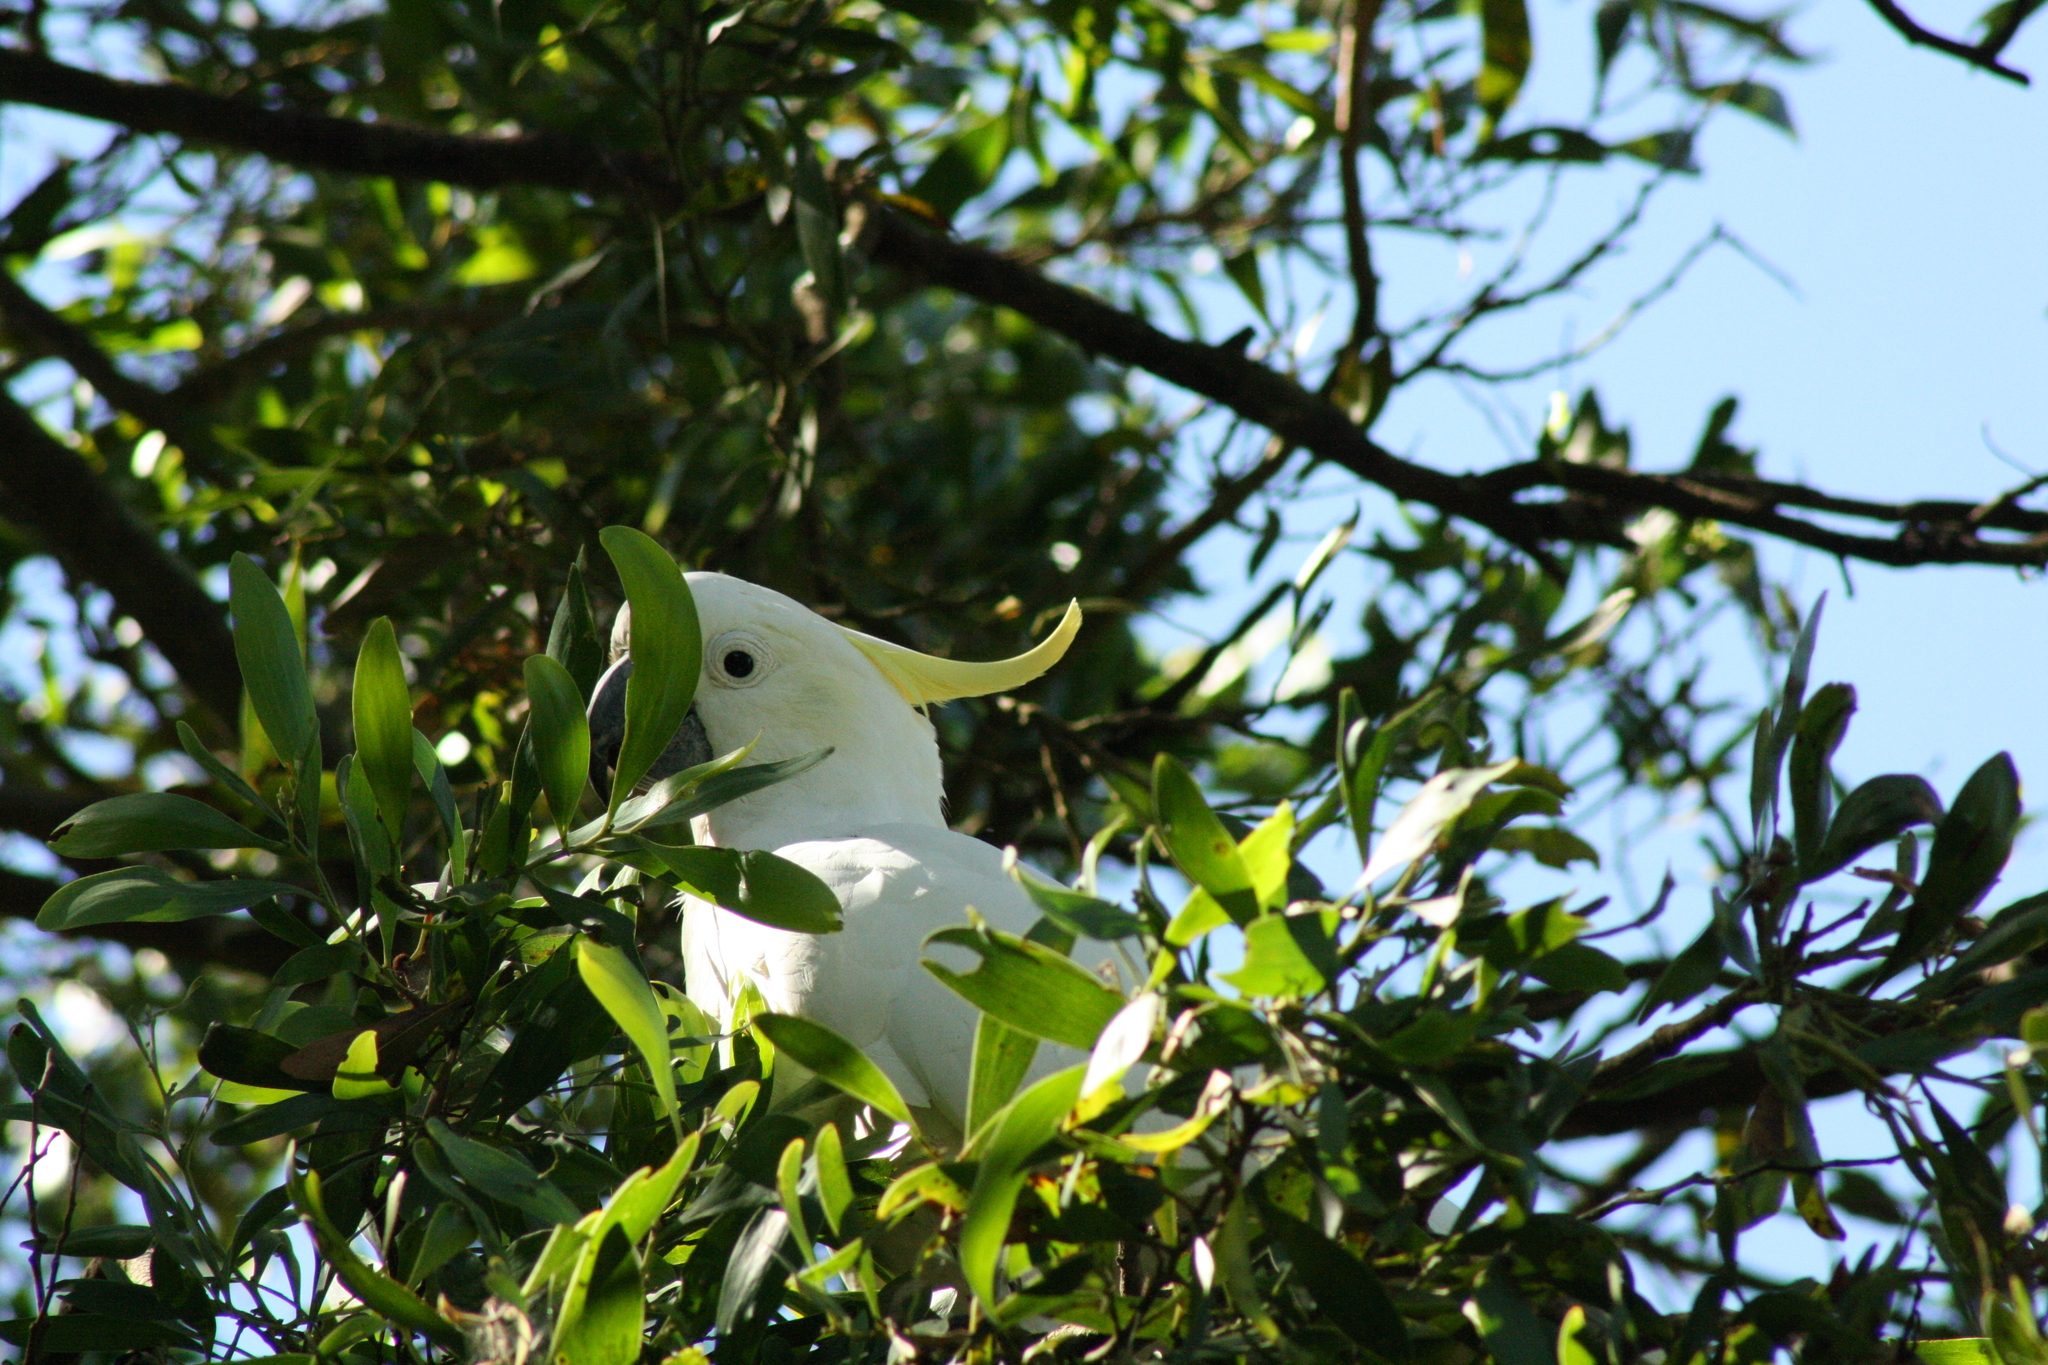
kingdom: Animalia
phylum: Chordata
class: Aves
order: Psittaciformes
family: Psittacidae
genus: Cacatua
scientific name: Cacatua galerita
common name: Sulphur-crested cockatoo
